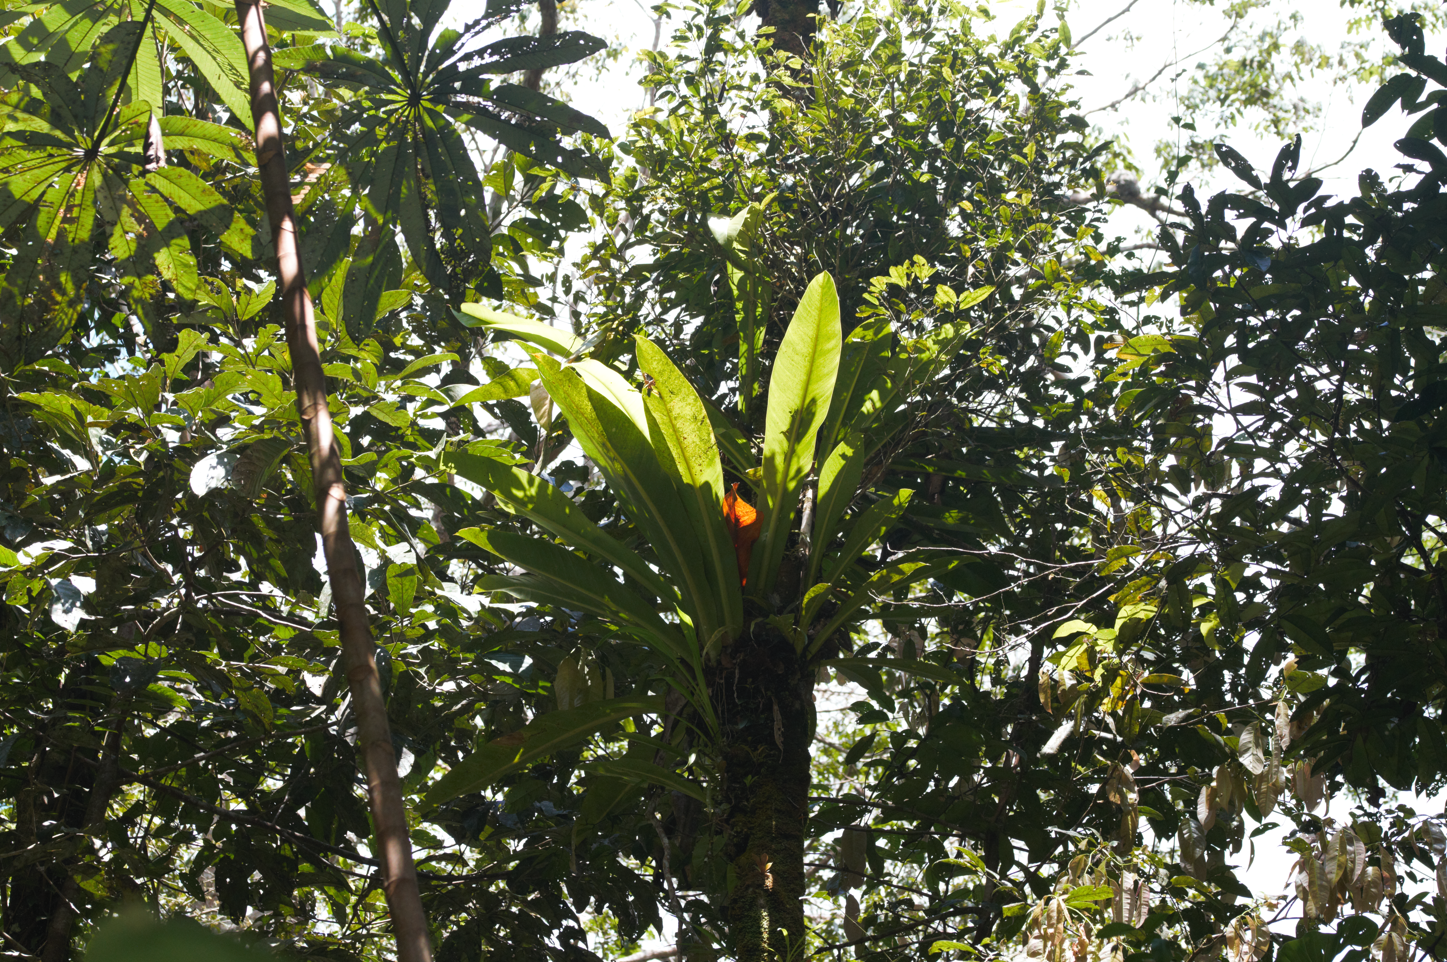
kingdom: Plantae
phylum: Tracheophyta
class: Liliopsida
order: Alismatales
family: Araceae
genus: Philodendron
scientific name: Philodendron insigne
